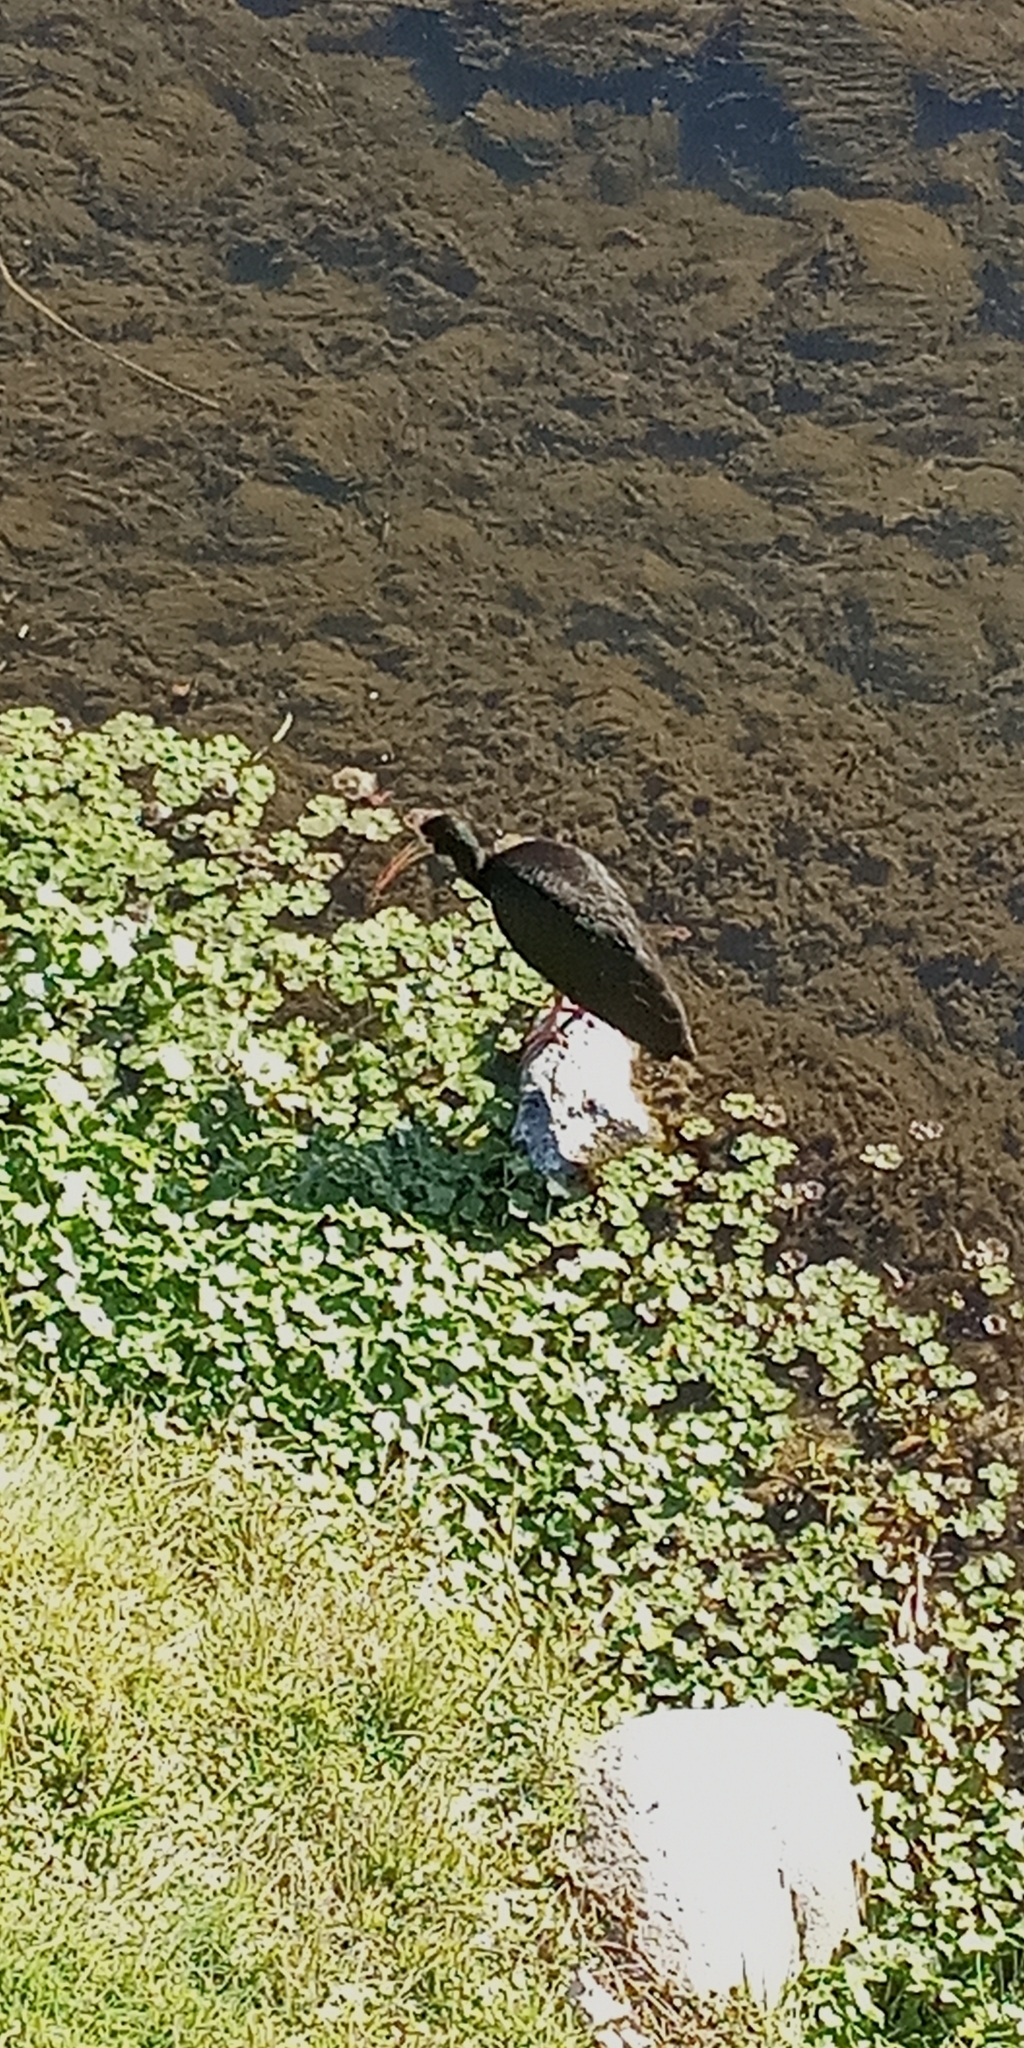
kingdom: Animalia
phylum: Chordata
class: Aves
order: Pelecaniformes
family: Threskiornithidae
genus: Phimosus
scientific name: Phimosus infuscatus
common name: Bare-faced ibis
